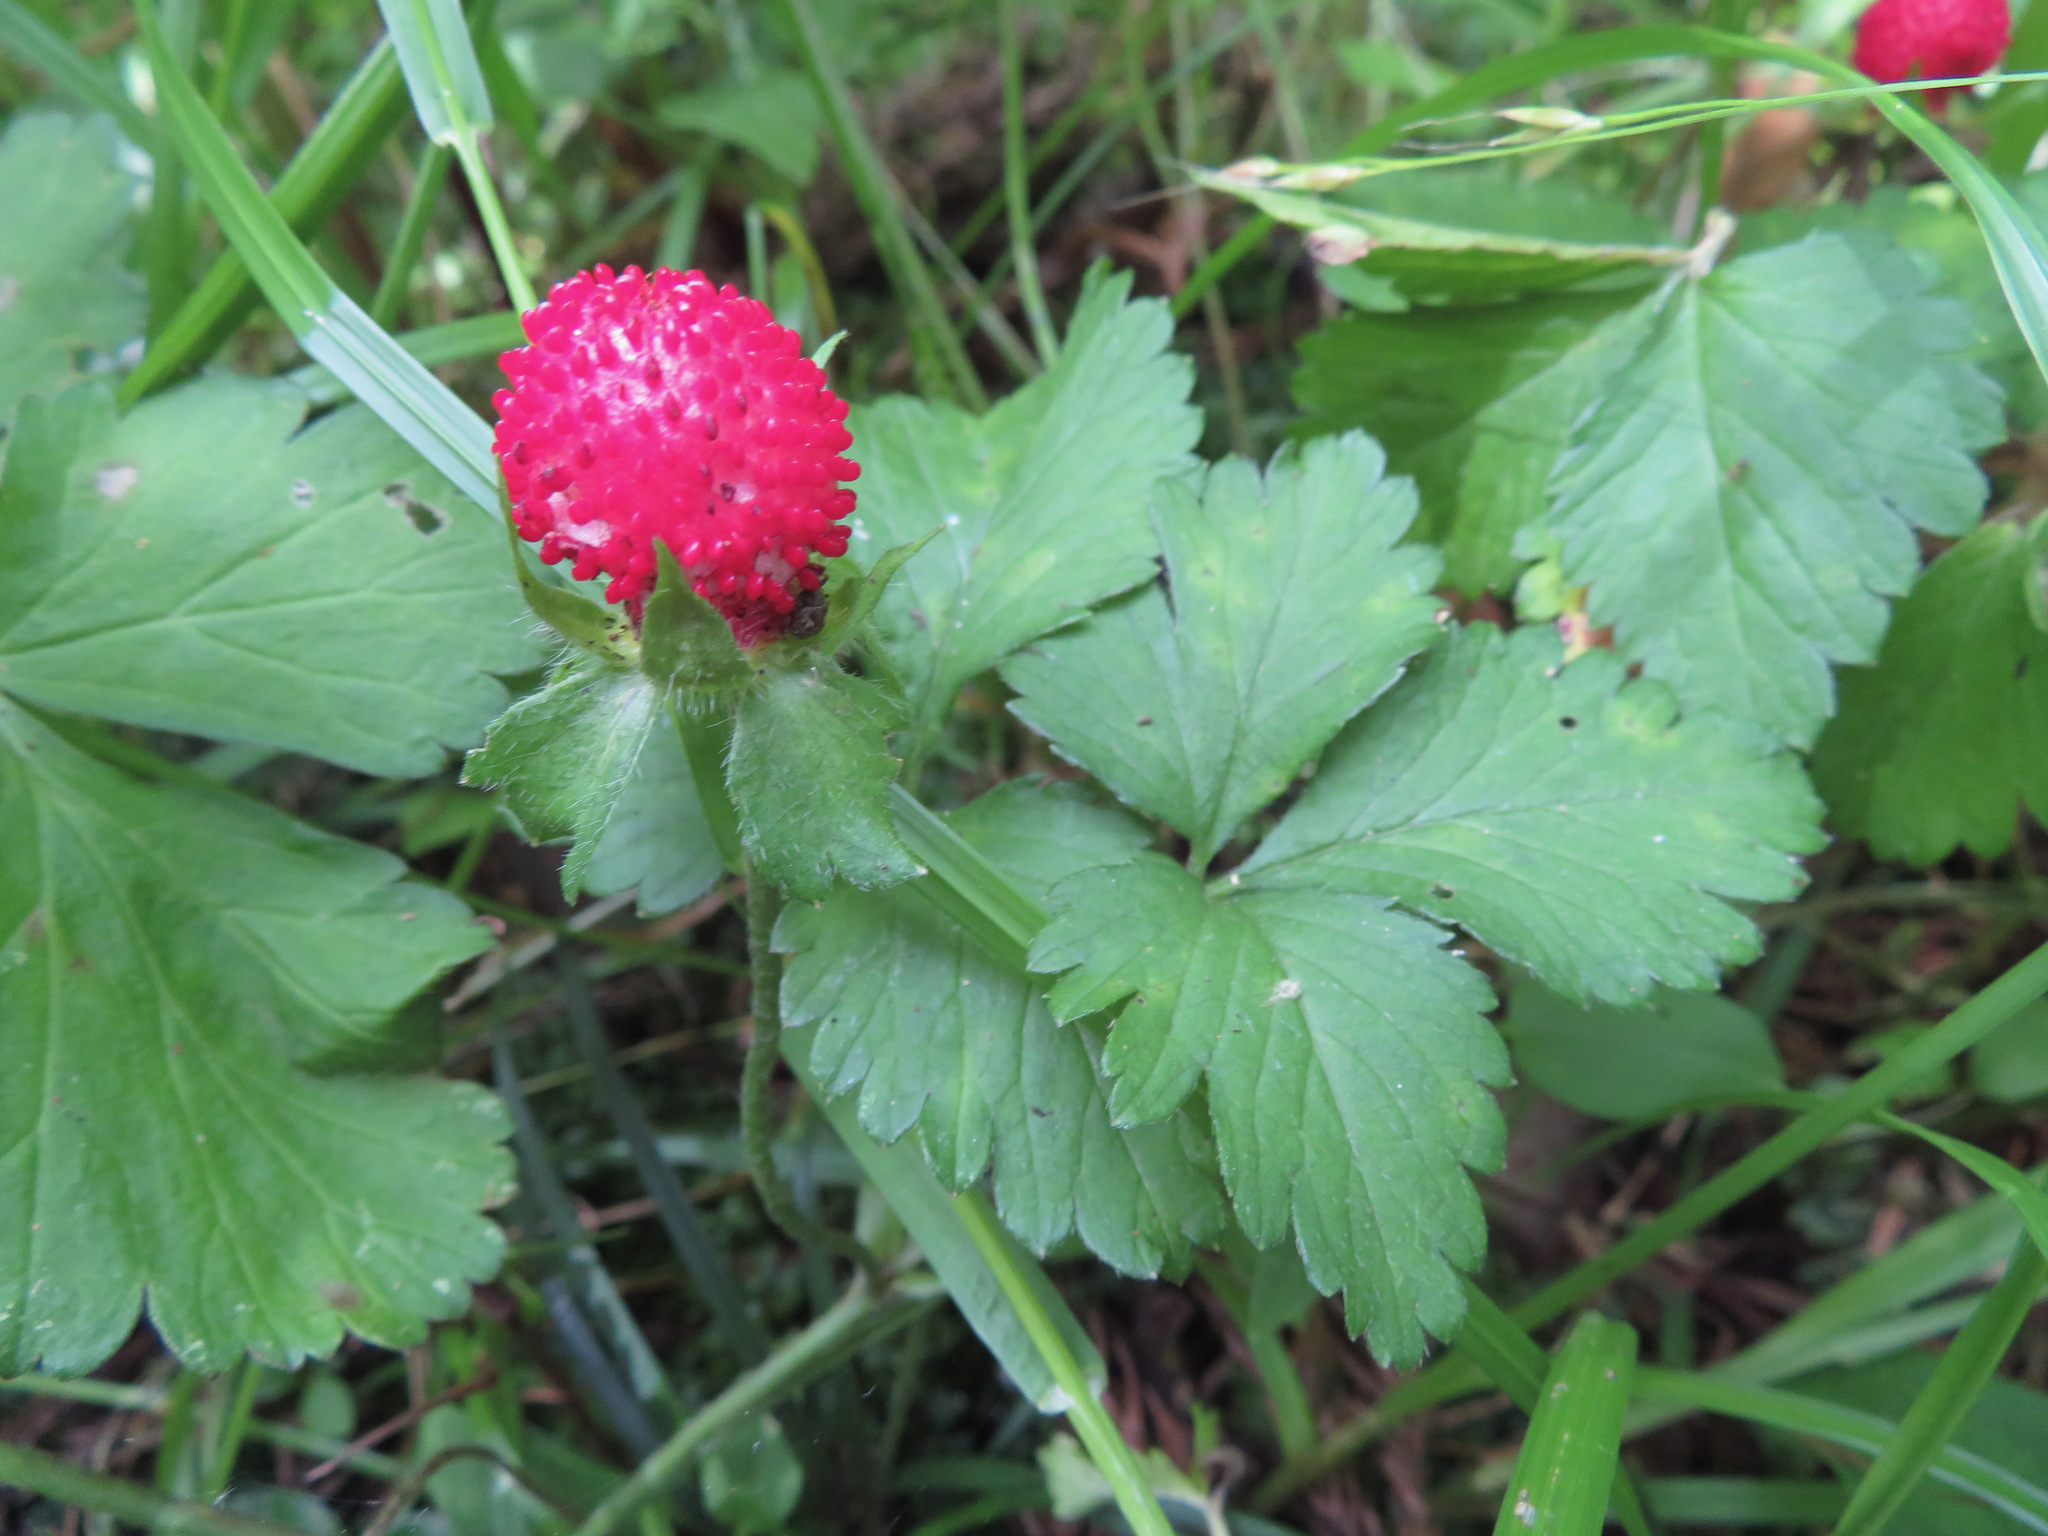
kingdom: Plantae
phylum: Tracheophyta
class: Magnoliopsida
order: Rosales
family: Rosaceae
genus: Potentilla
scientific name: Potentilla indica
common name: Yellow-flowered strawberry
